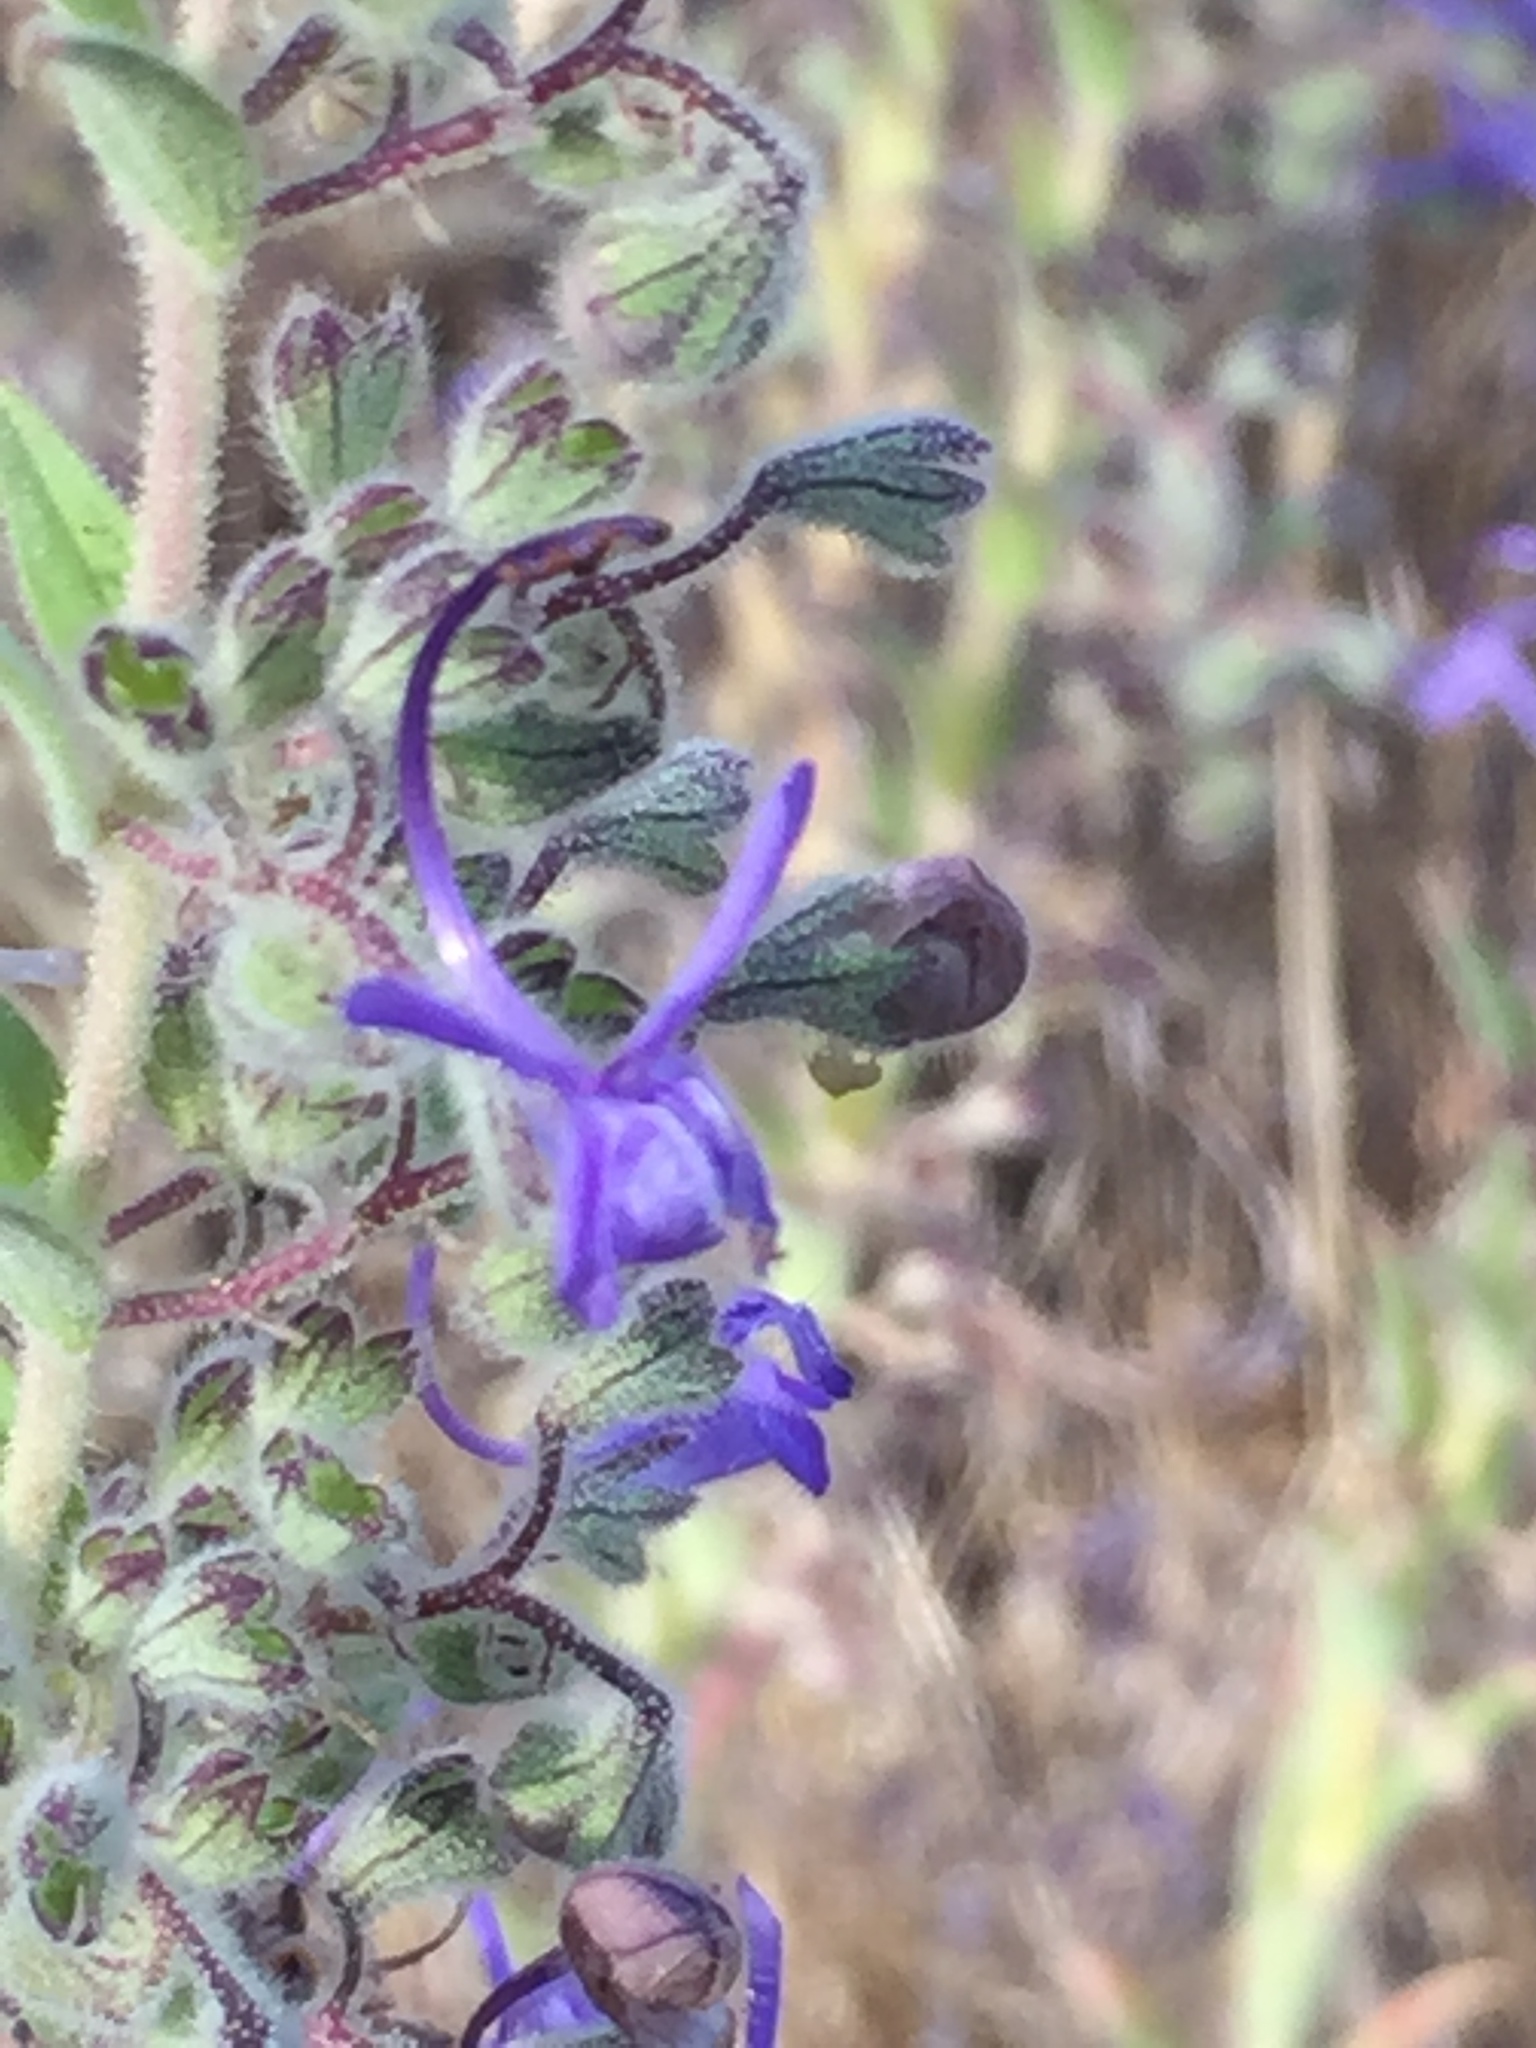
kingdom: Plantae
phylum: Tracheophyta
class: Magnoliopsida
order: Lamiales
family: Lamiaceae
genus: Trichostema
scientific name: Trichostema lanceolatum
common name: Vinegar-weed
